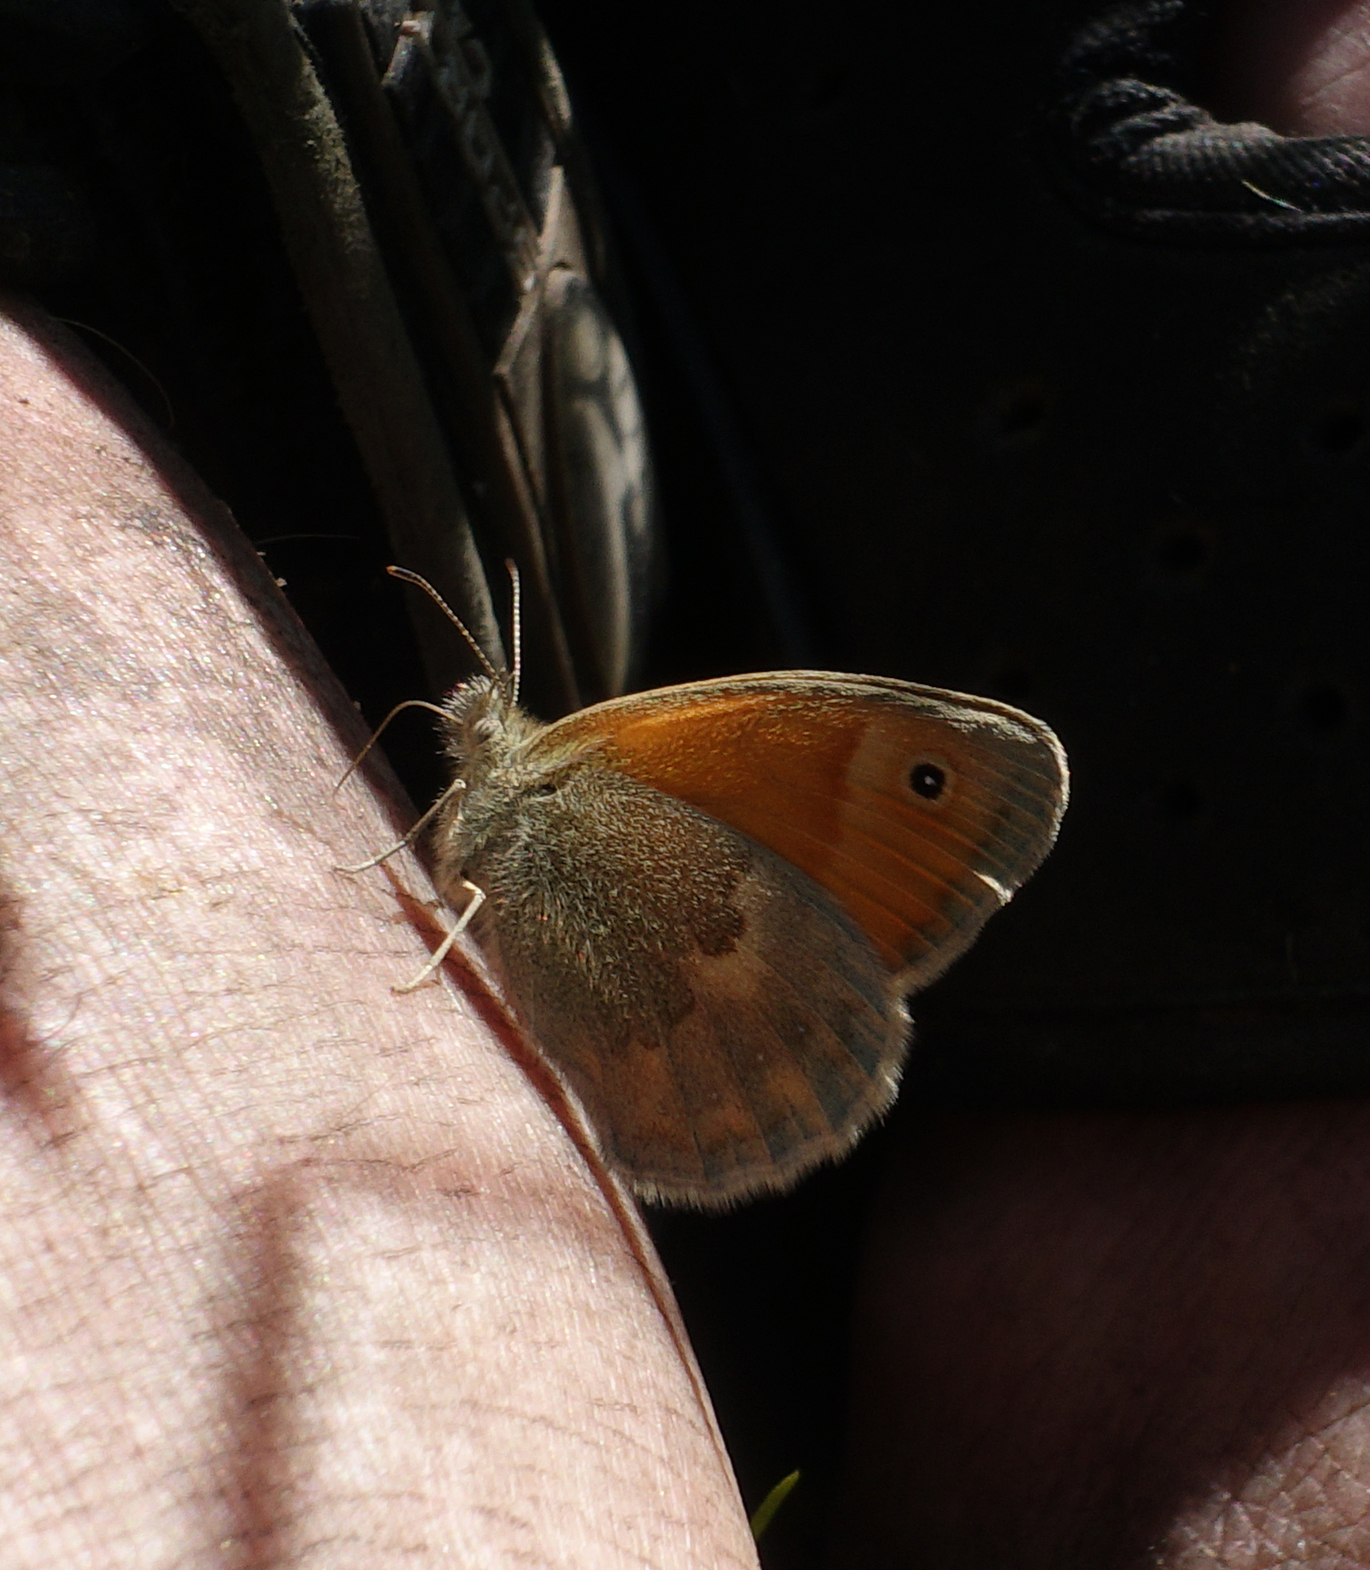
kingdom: Animalia
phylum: Arthropoda
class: Insecta
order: Lepidoptera
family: Nymphalidae
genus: Coenonympha
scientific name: Coenonympha pamphilus
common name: Small heath
